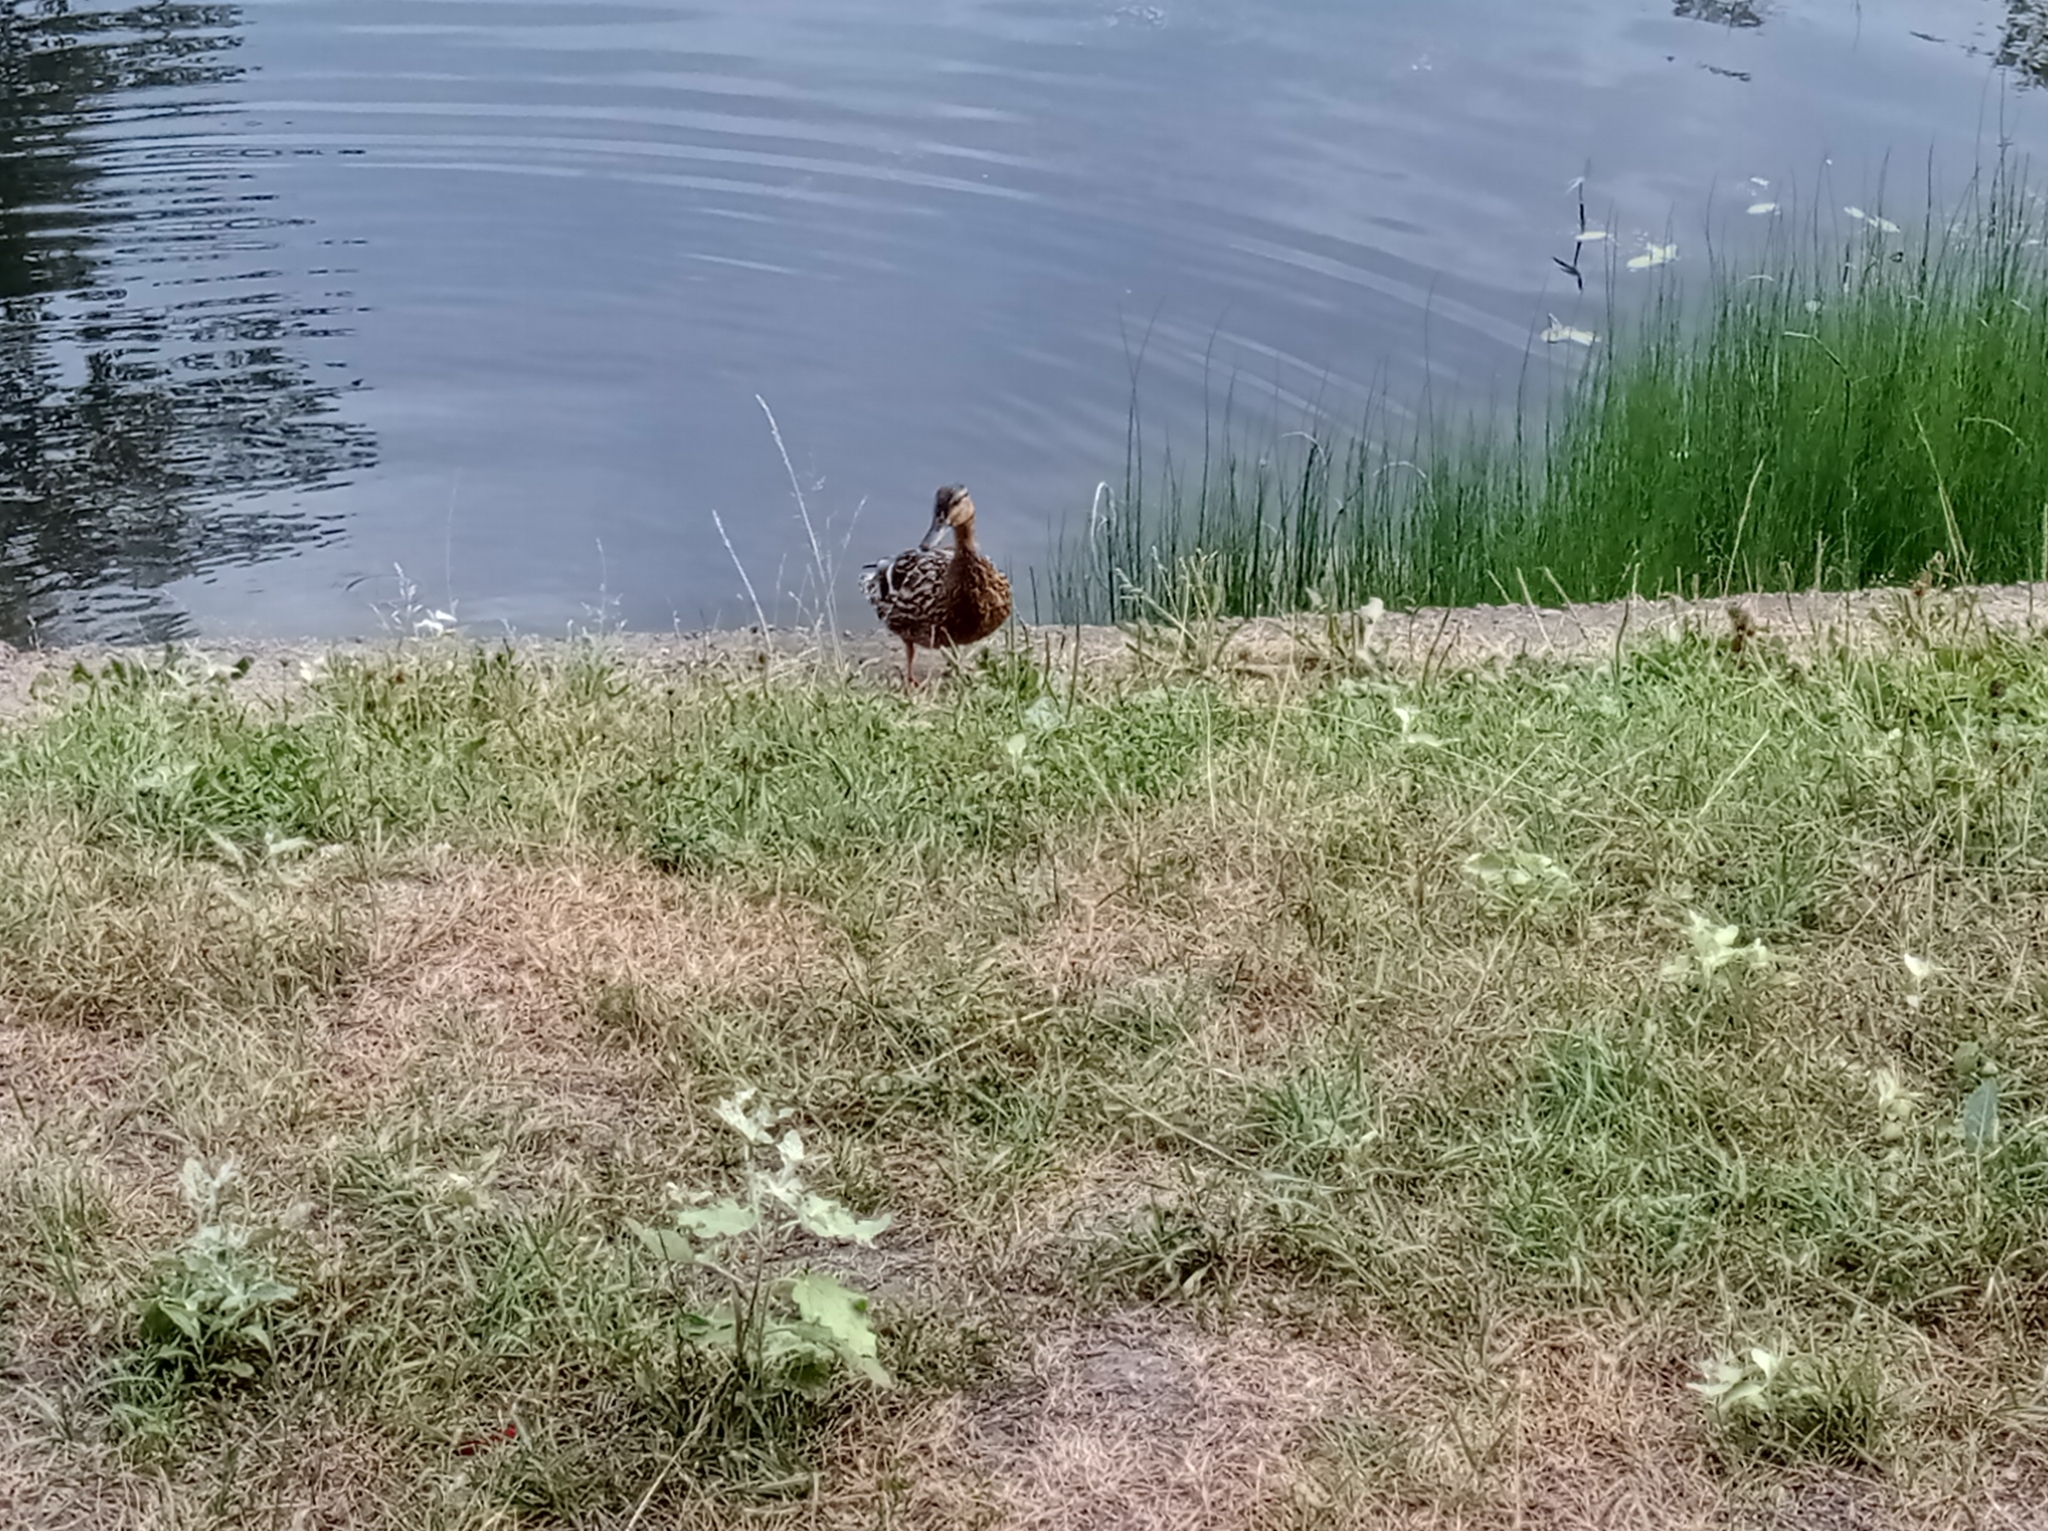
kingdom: Animalia
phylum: Chordata
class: Aves
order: Anseriformes
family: Anatidae
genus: Anas
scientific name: Anas platyrhynchos
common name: Mallard
